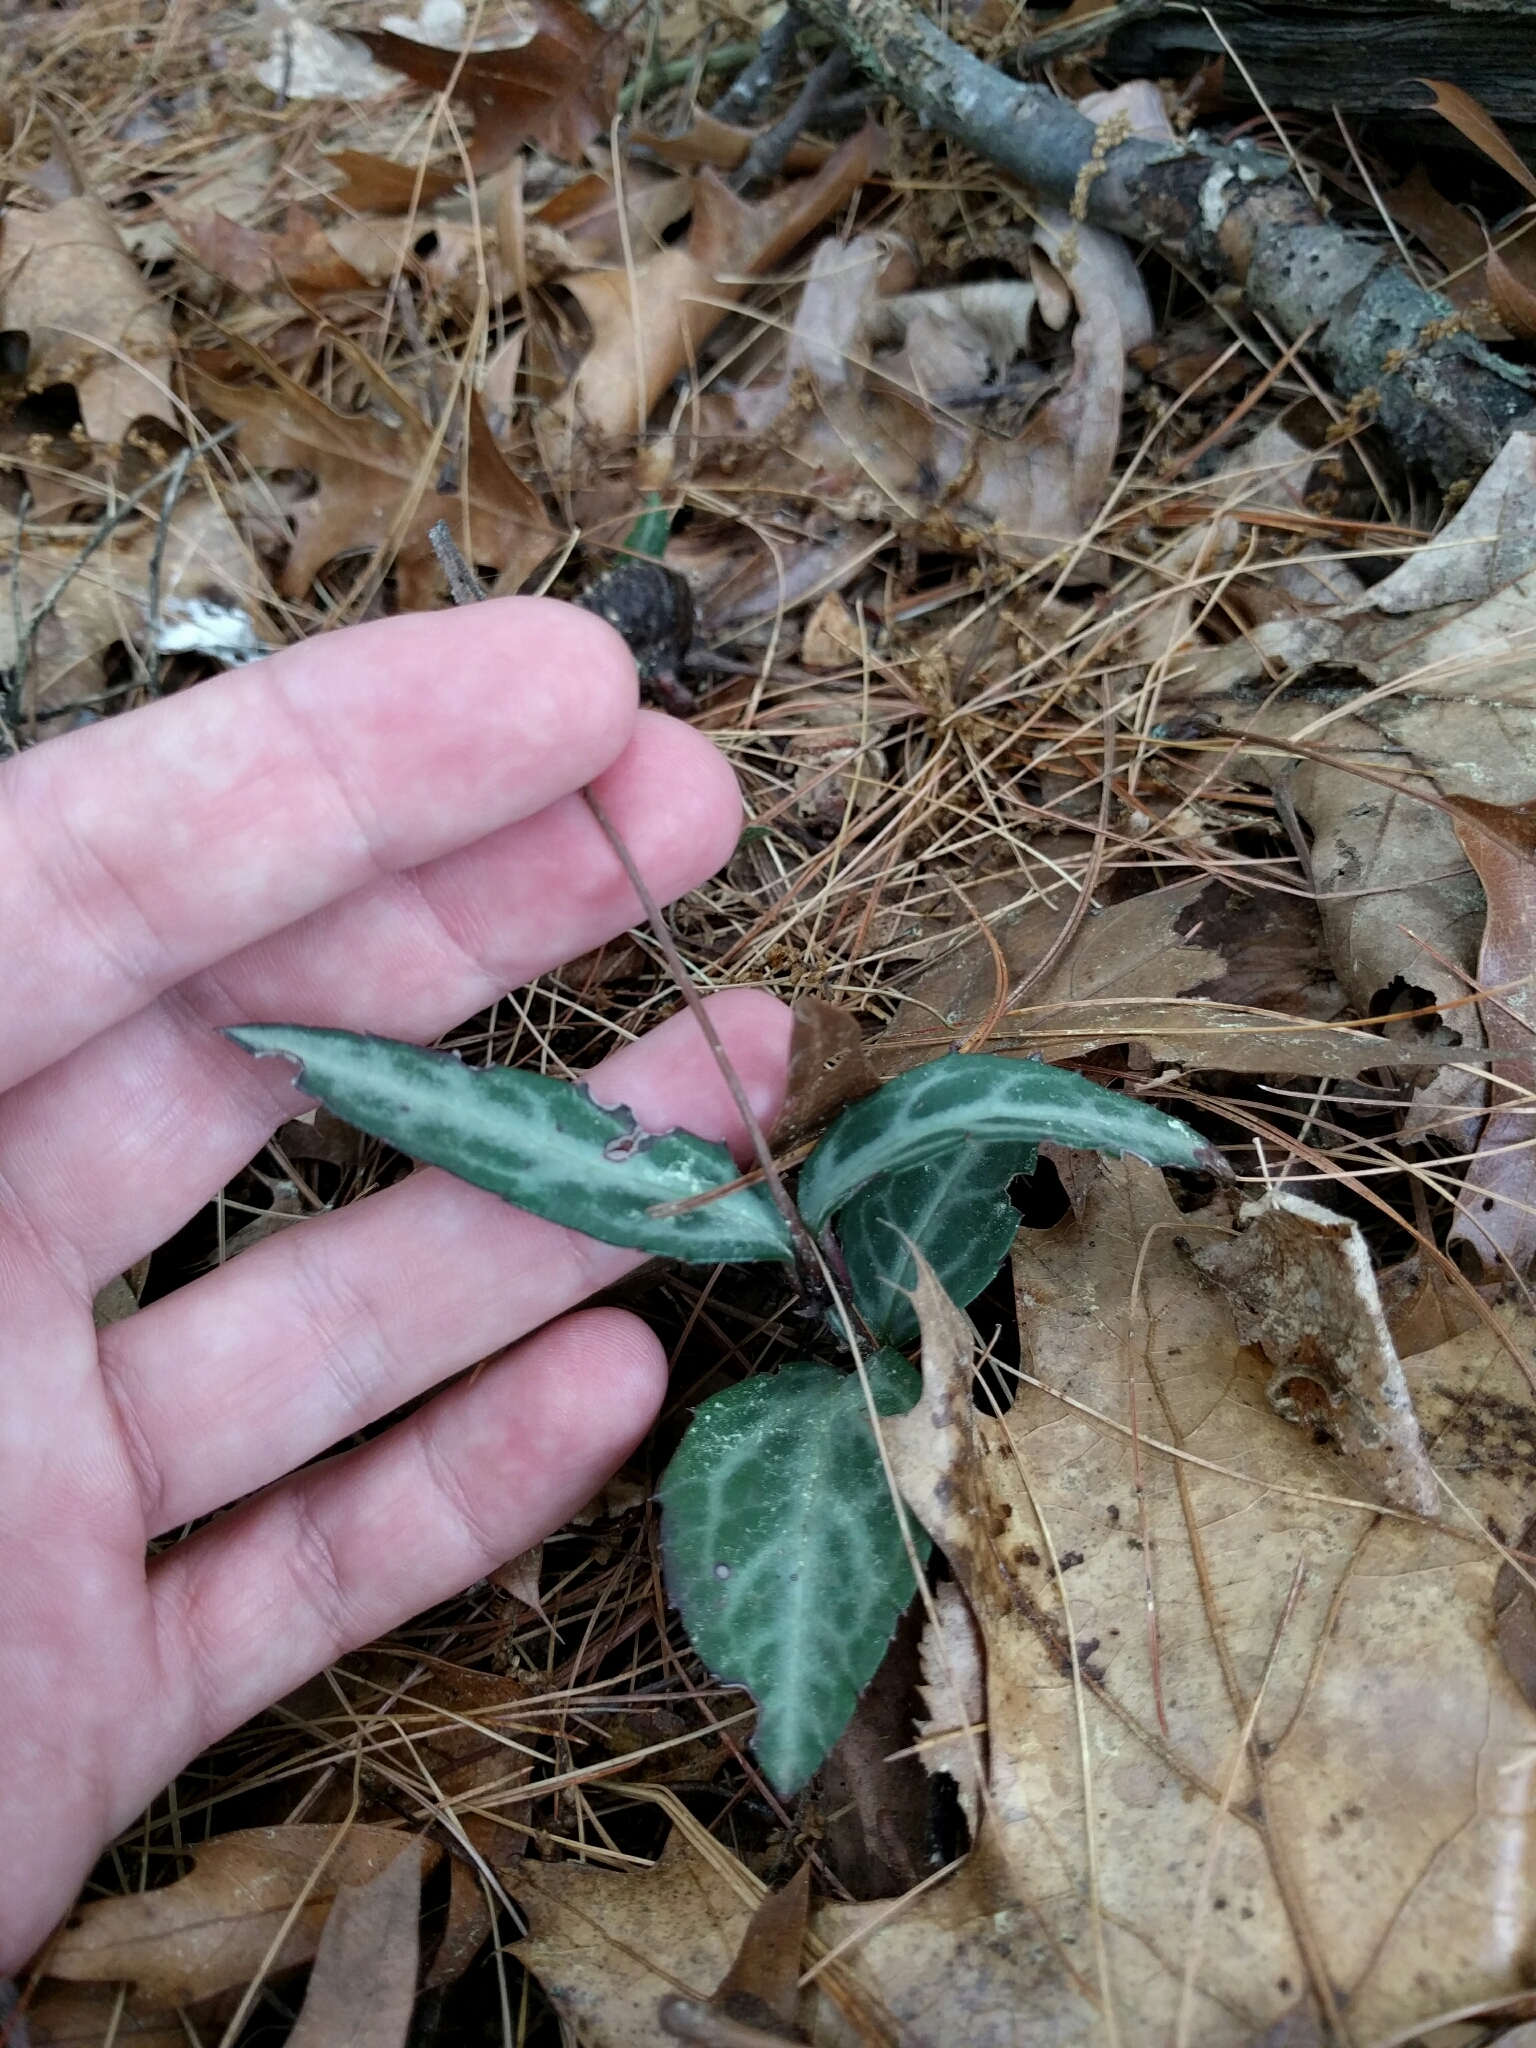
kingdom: Plantae
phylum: Tracheophyta
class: Magnoliopsida
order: Ericales
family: Ericaceae
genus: Chimaphila
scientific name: Chimaphila maculata
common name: Spotted pipsissewa
